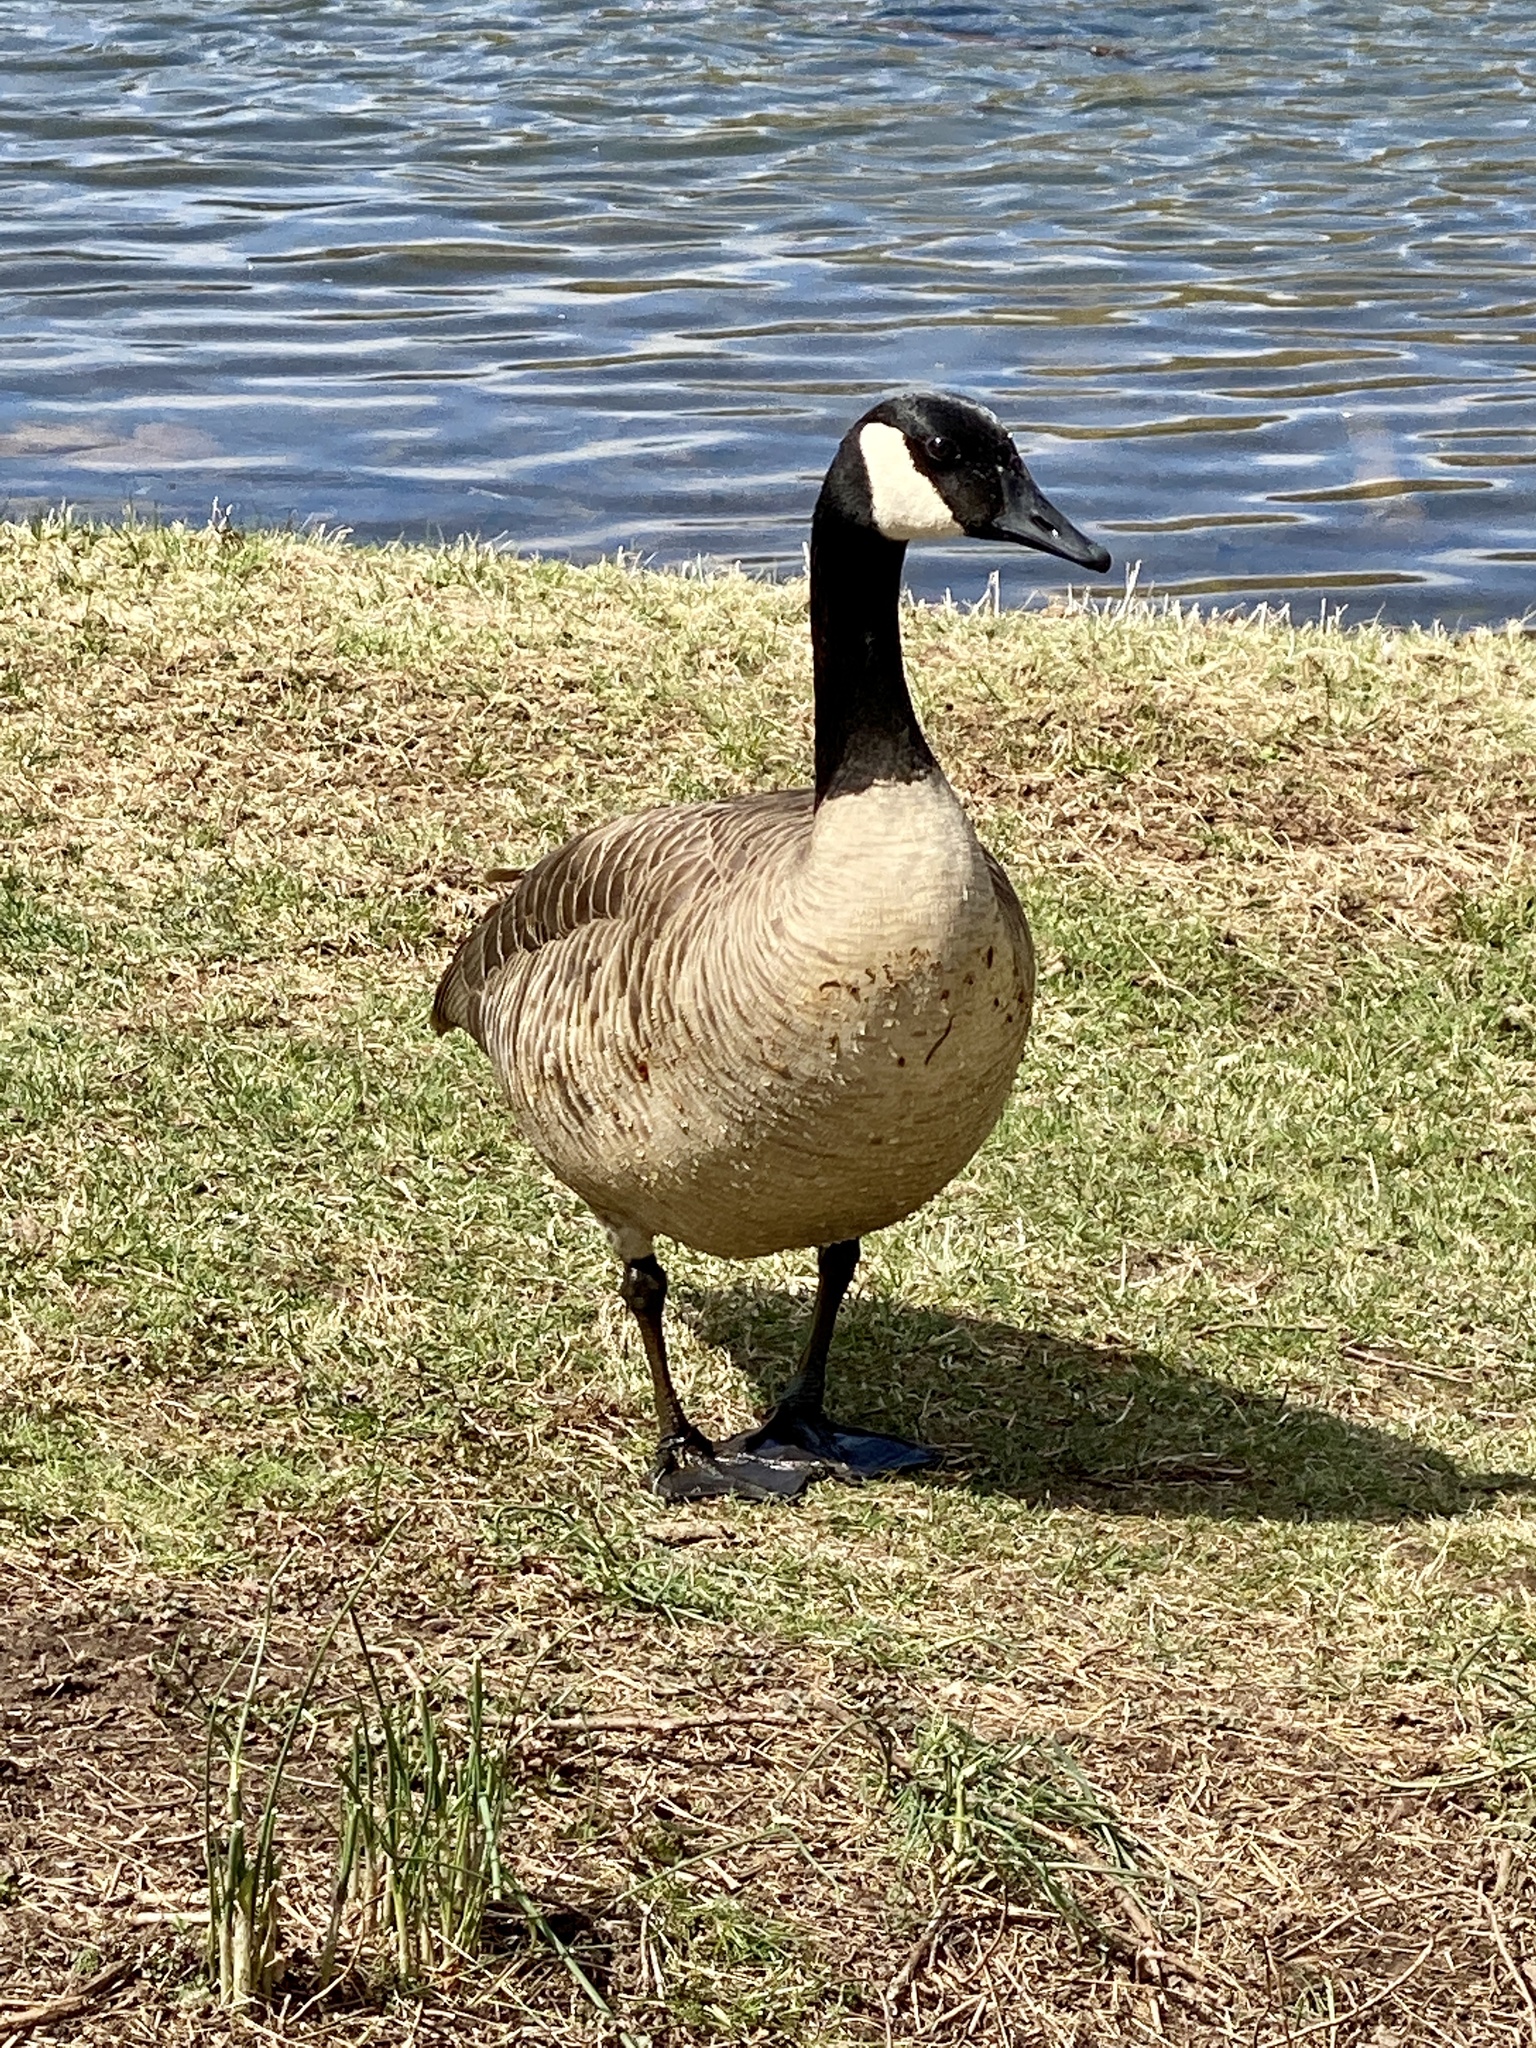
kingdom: Animalia
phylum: Chordata
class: Aves
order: Anseriformes
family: Anatidae
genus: Branta
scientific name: Branta canadensis
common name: Canada goose
